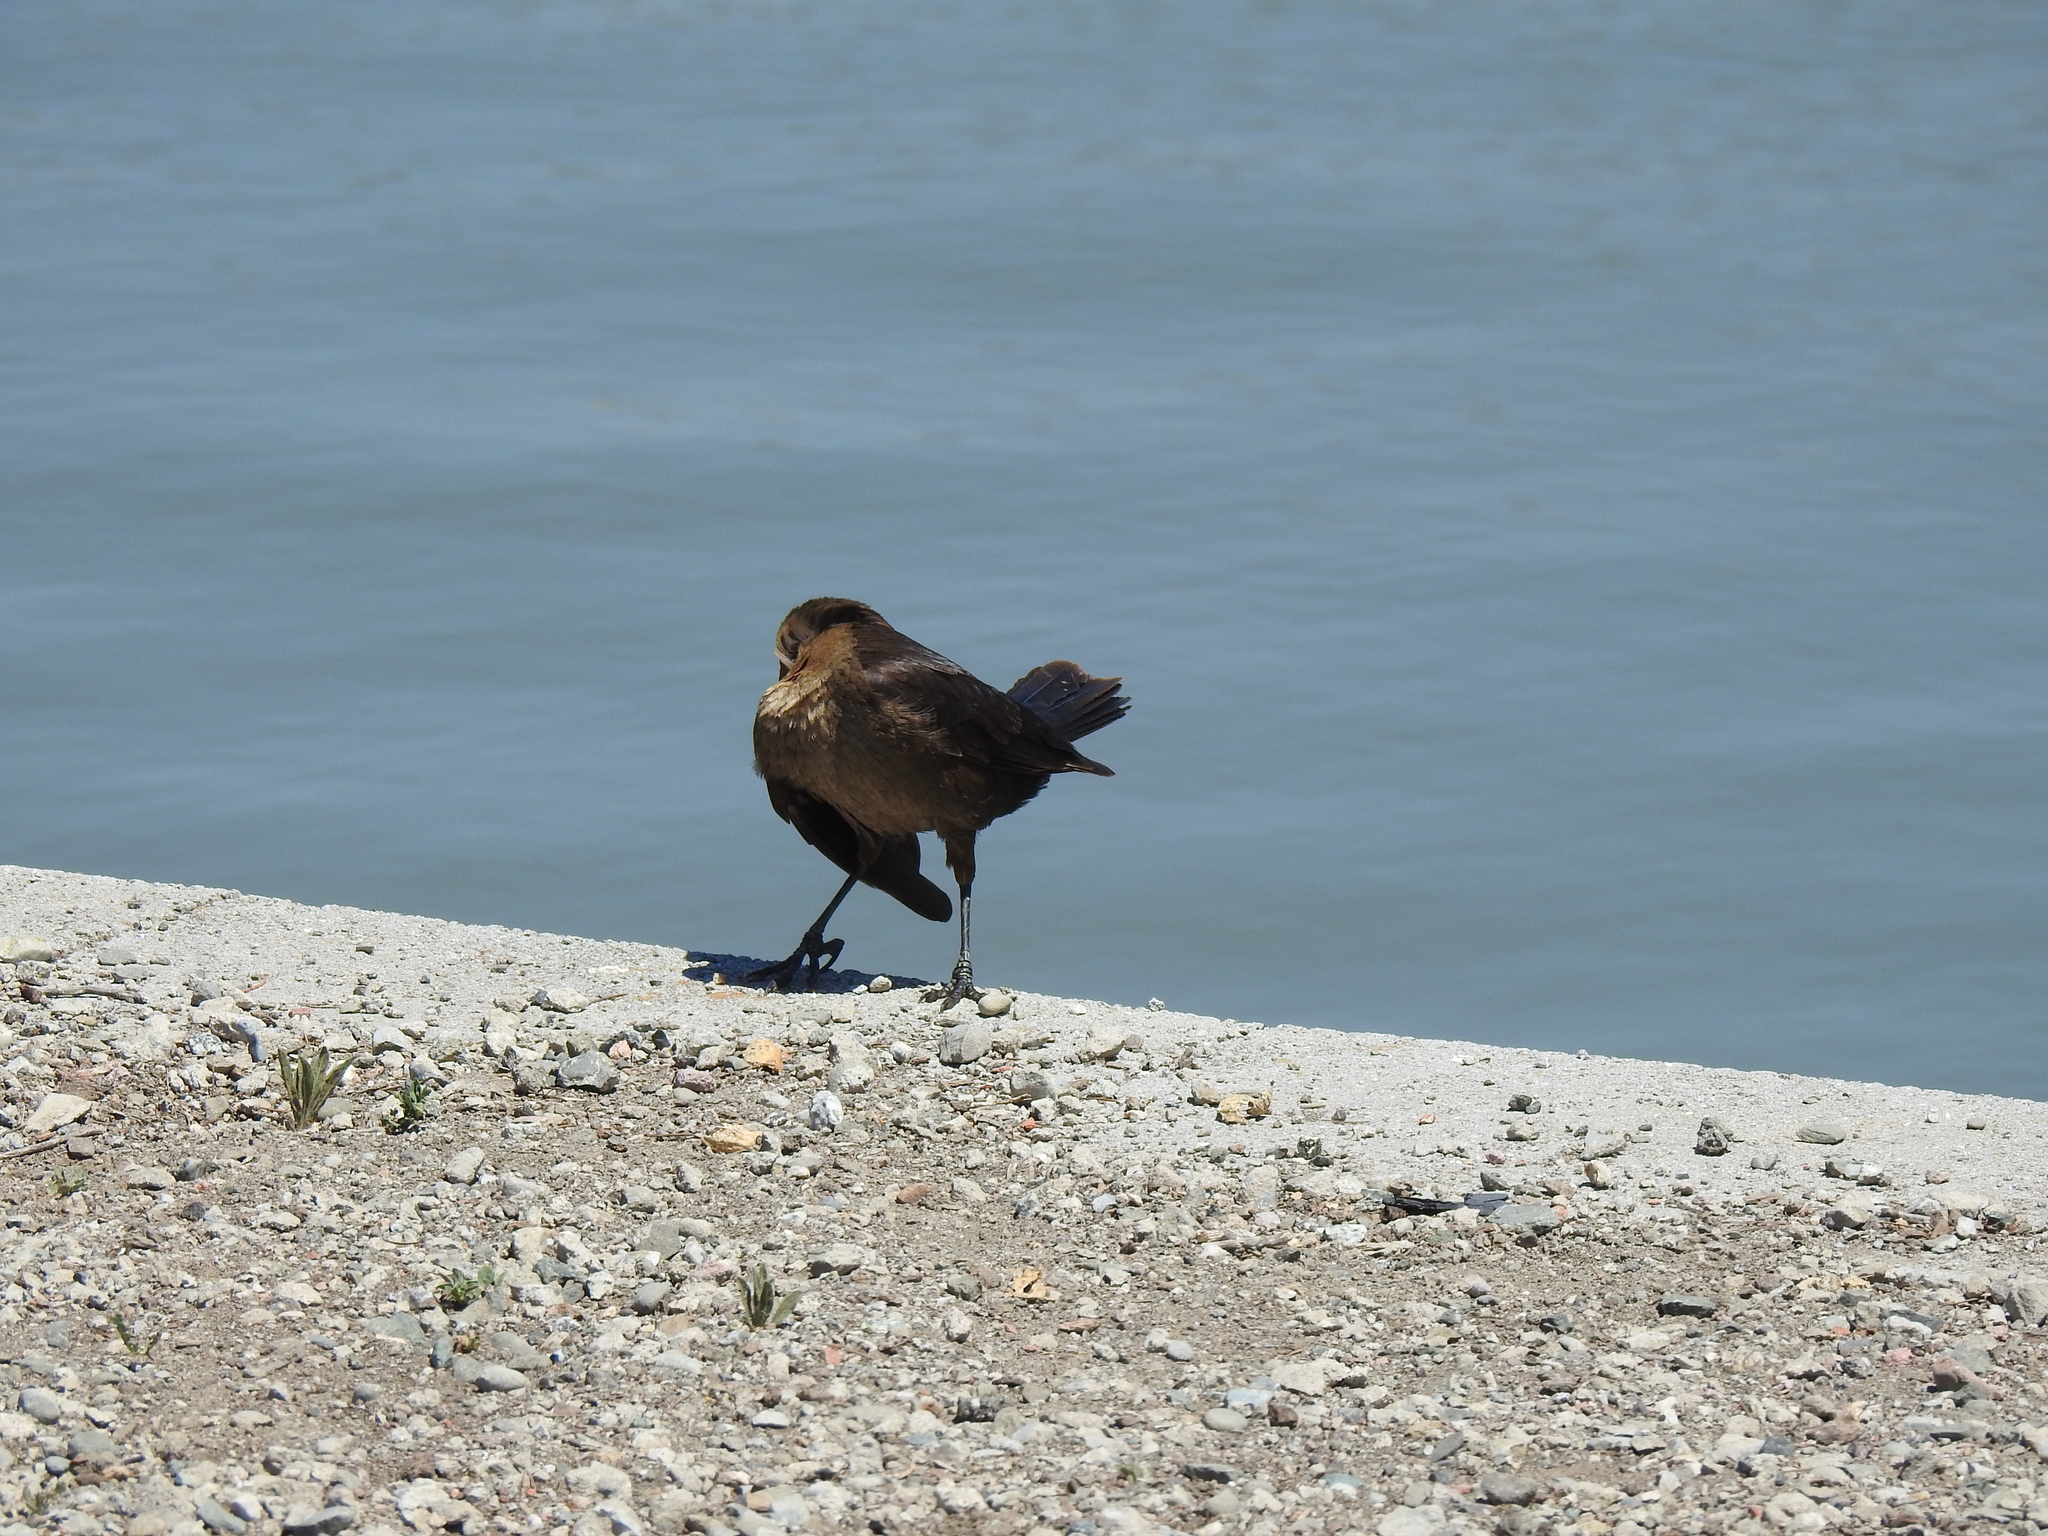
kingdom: Animalia
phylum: Chordata
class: Aves
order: Passeriformes
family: Icteridae
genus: Quiscalus
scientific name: Quiscalus mexicanus
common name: Great-tailed grackle
